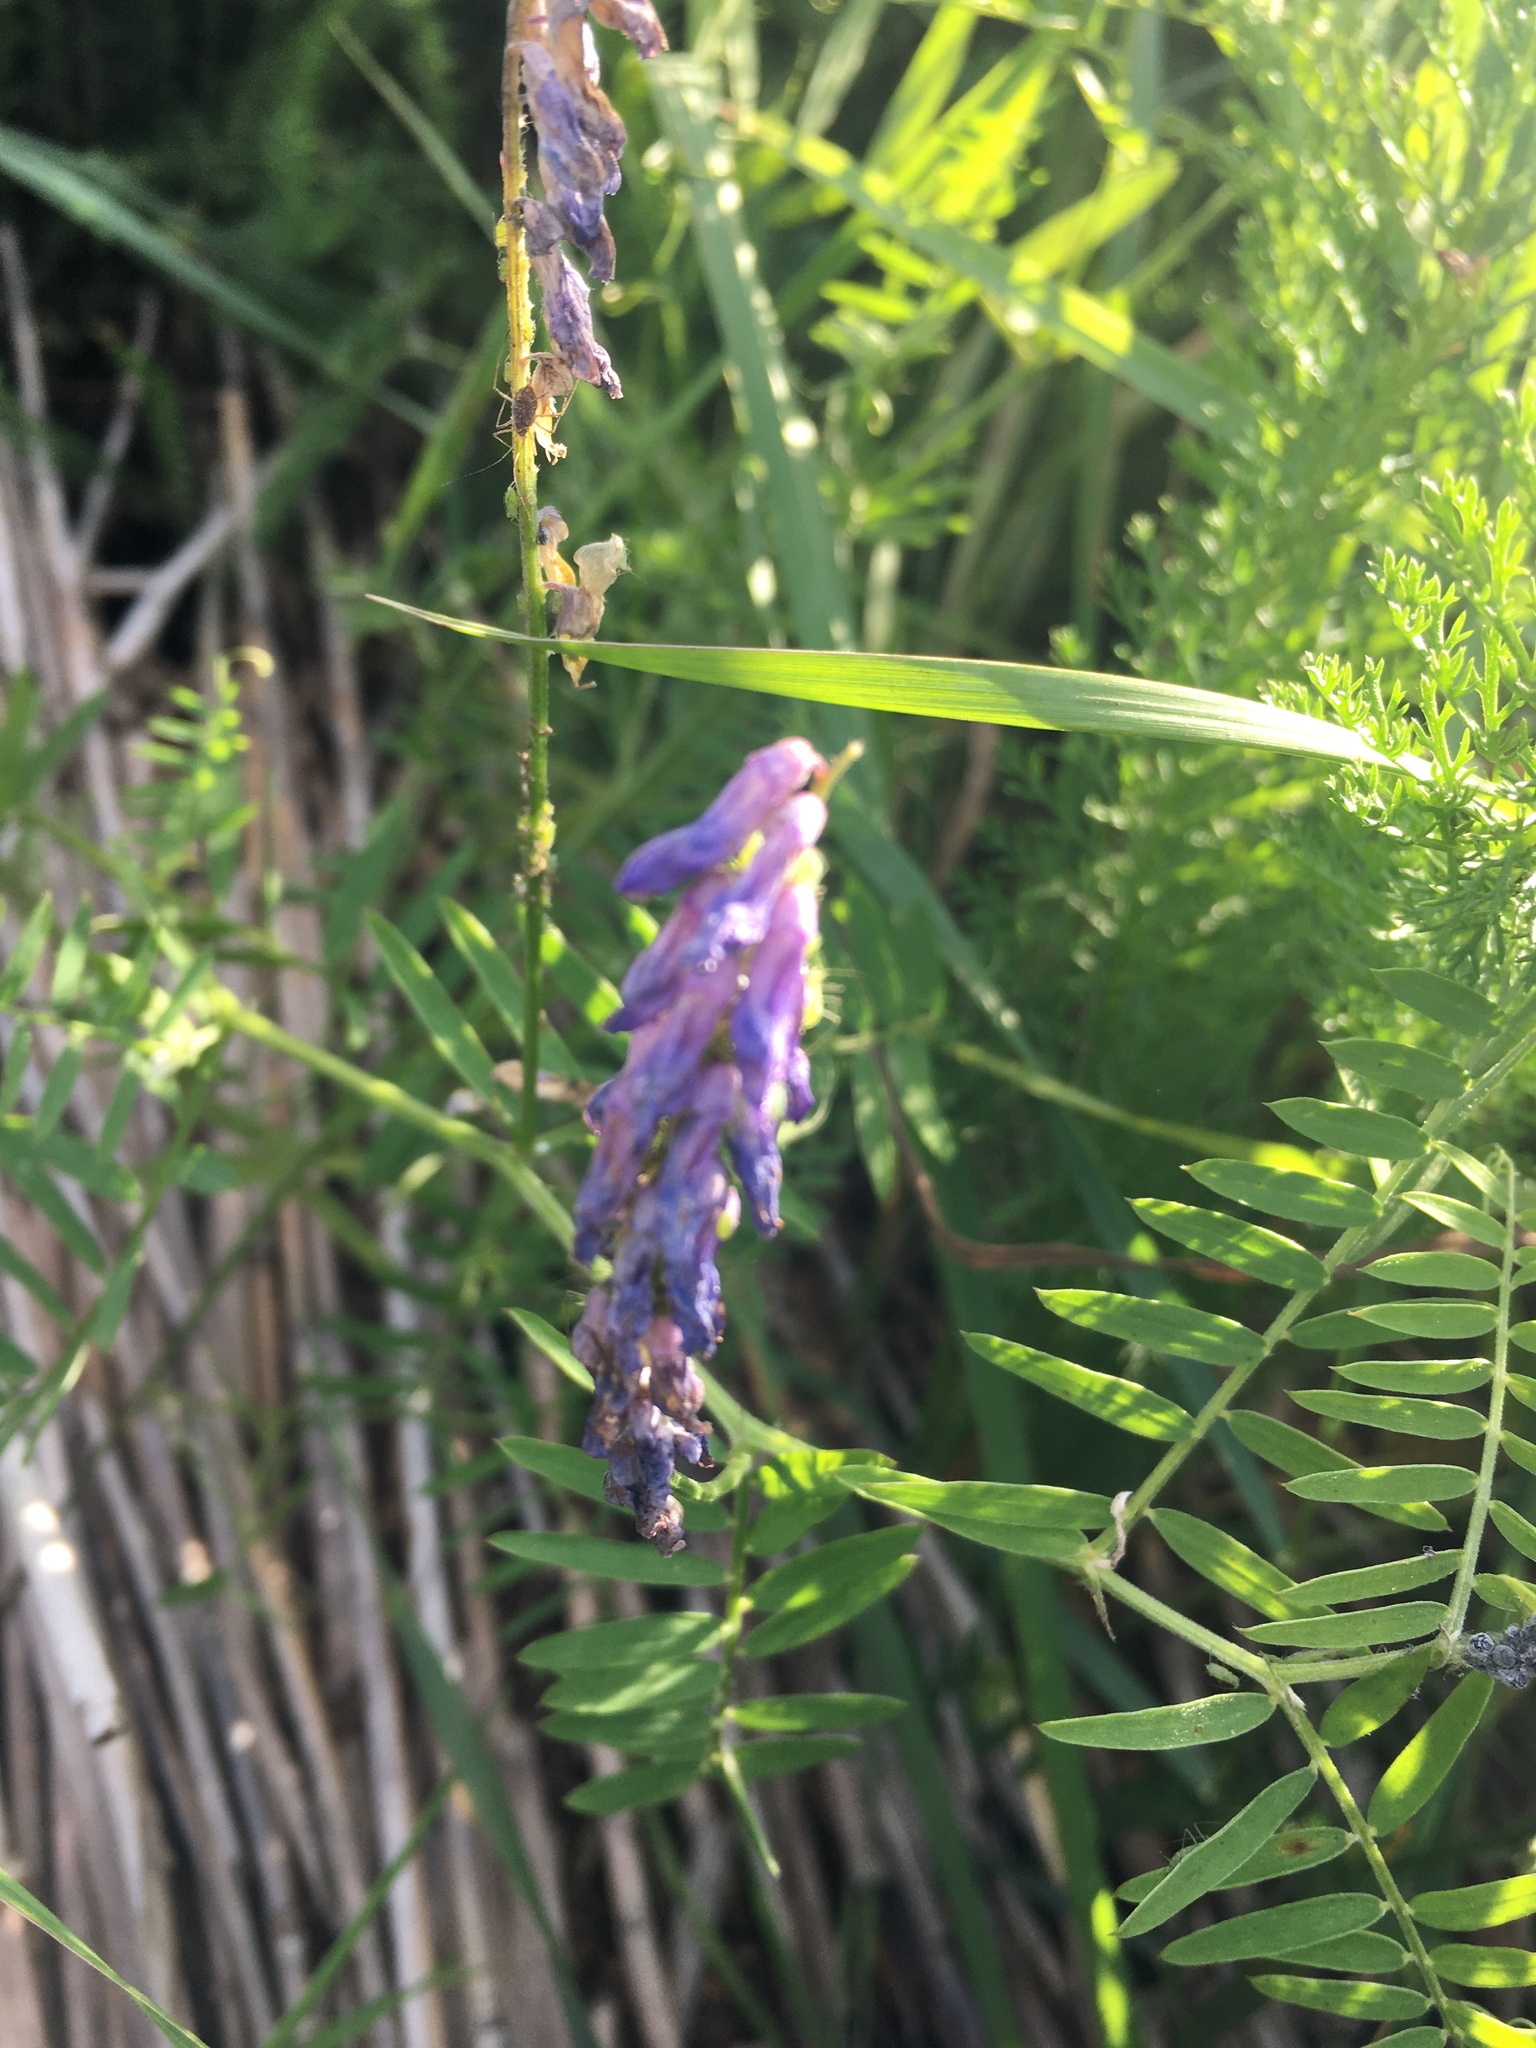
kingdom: Plantae
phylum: Tracheophyta
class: Magnoliopsida
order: Fabales
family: Fabaceae
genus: Vicia
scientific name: Vicia cracca
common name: Bird vetch
